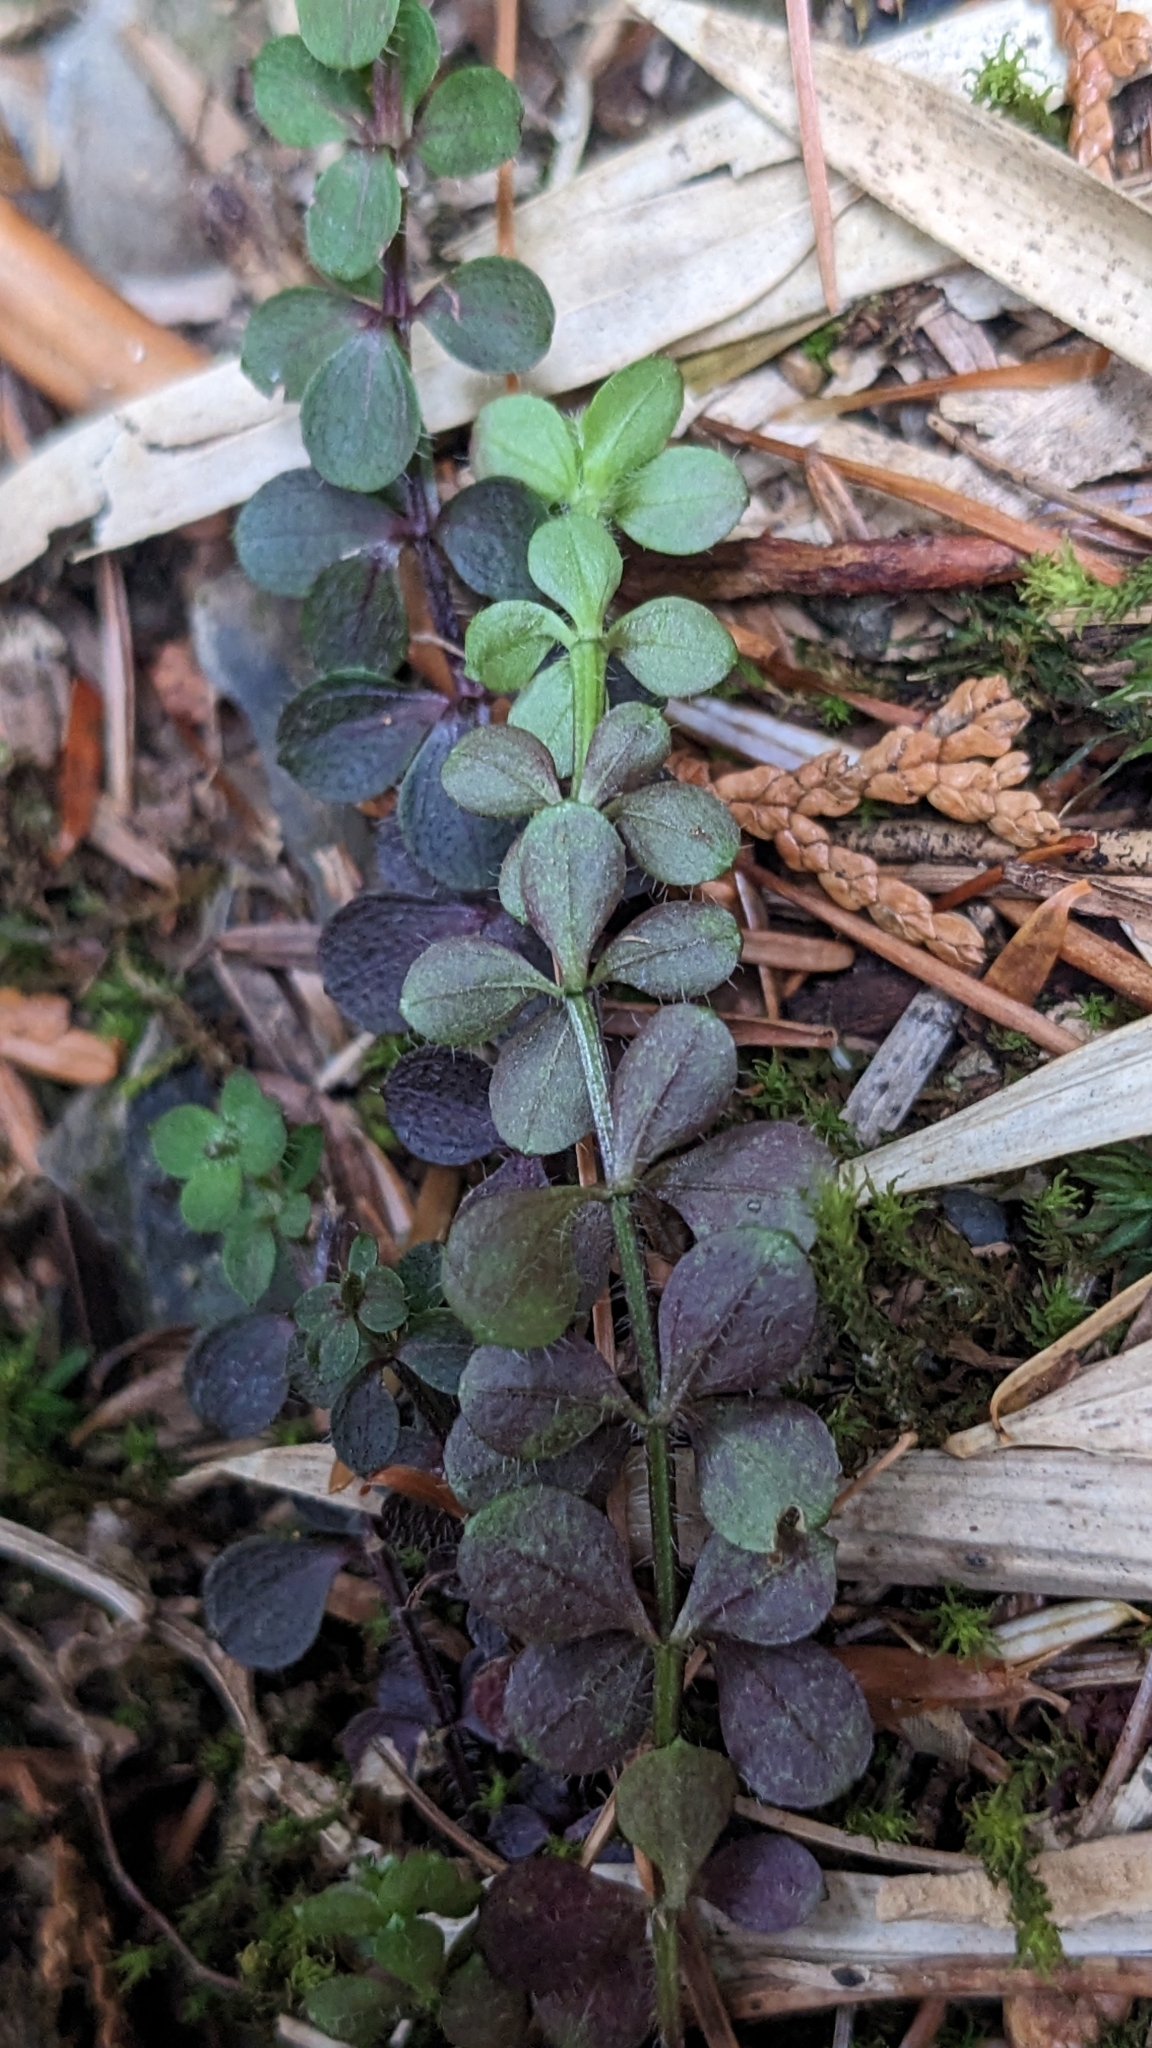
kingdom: Plantae
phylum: Tracheophyta
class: Magnoliopsida
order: Gentianales
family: Rubiaceae
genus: Galium
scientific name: Galium formosense
